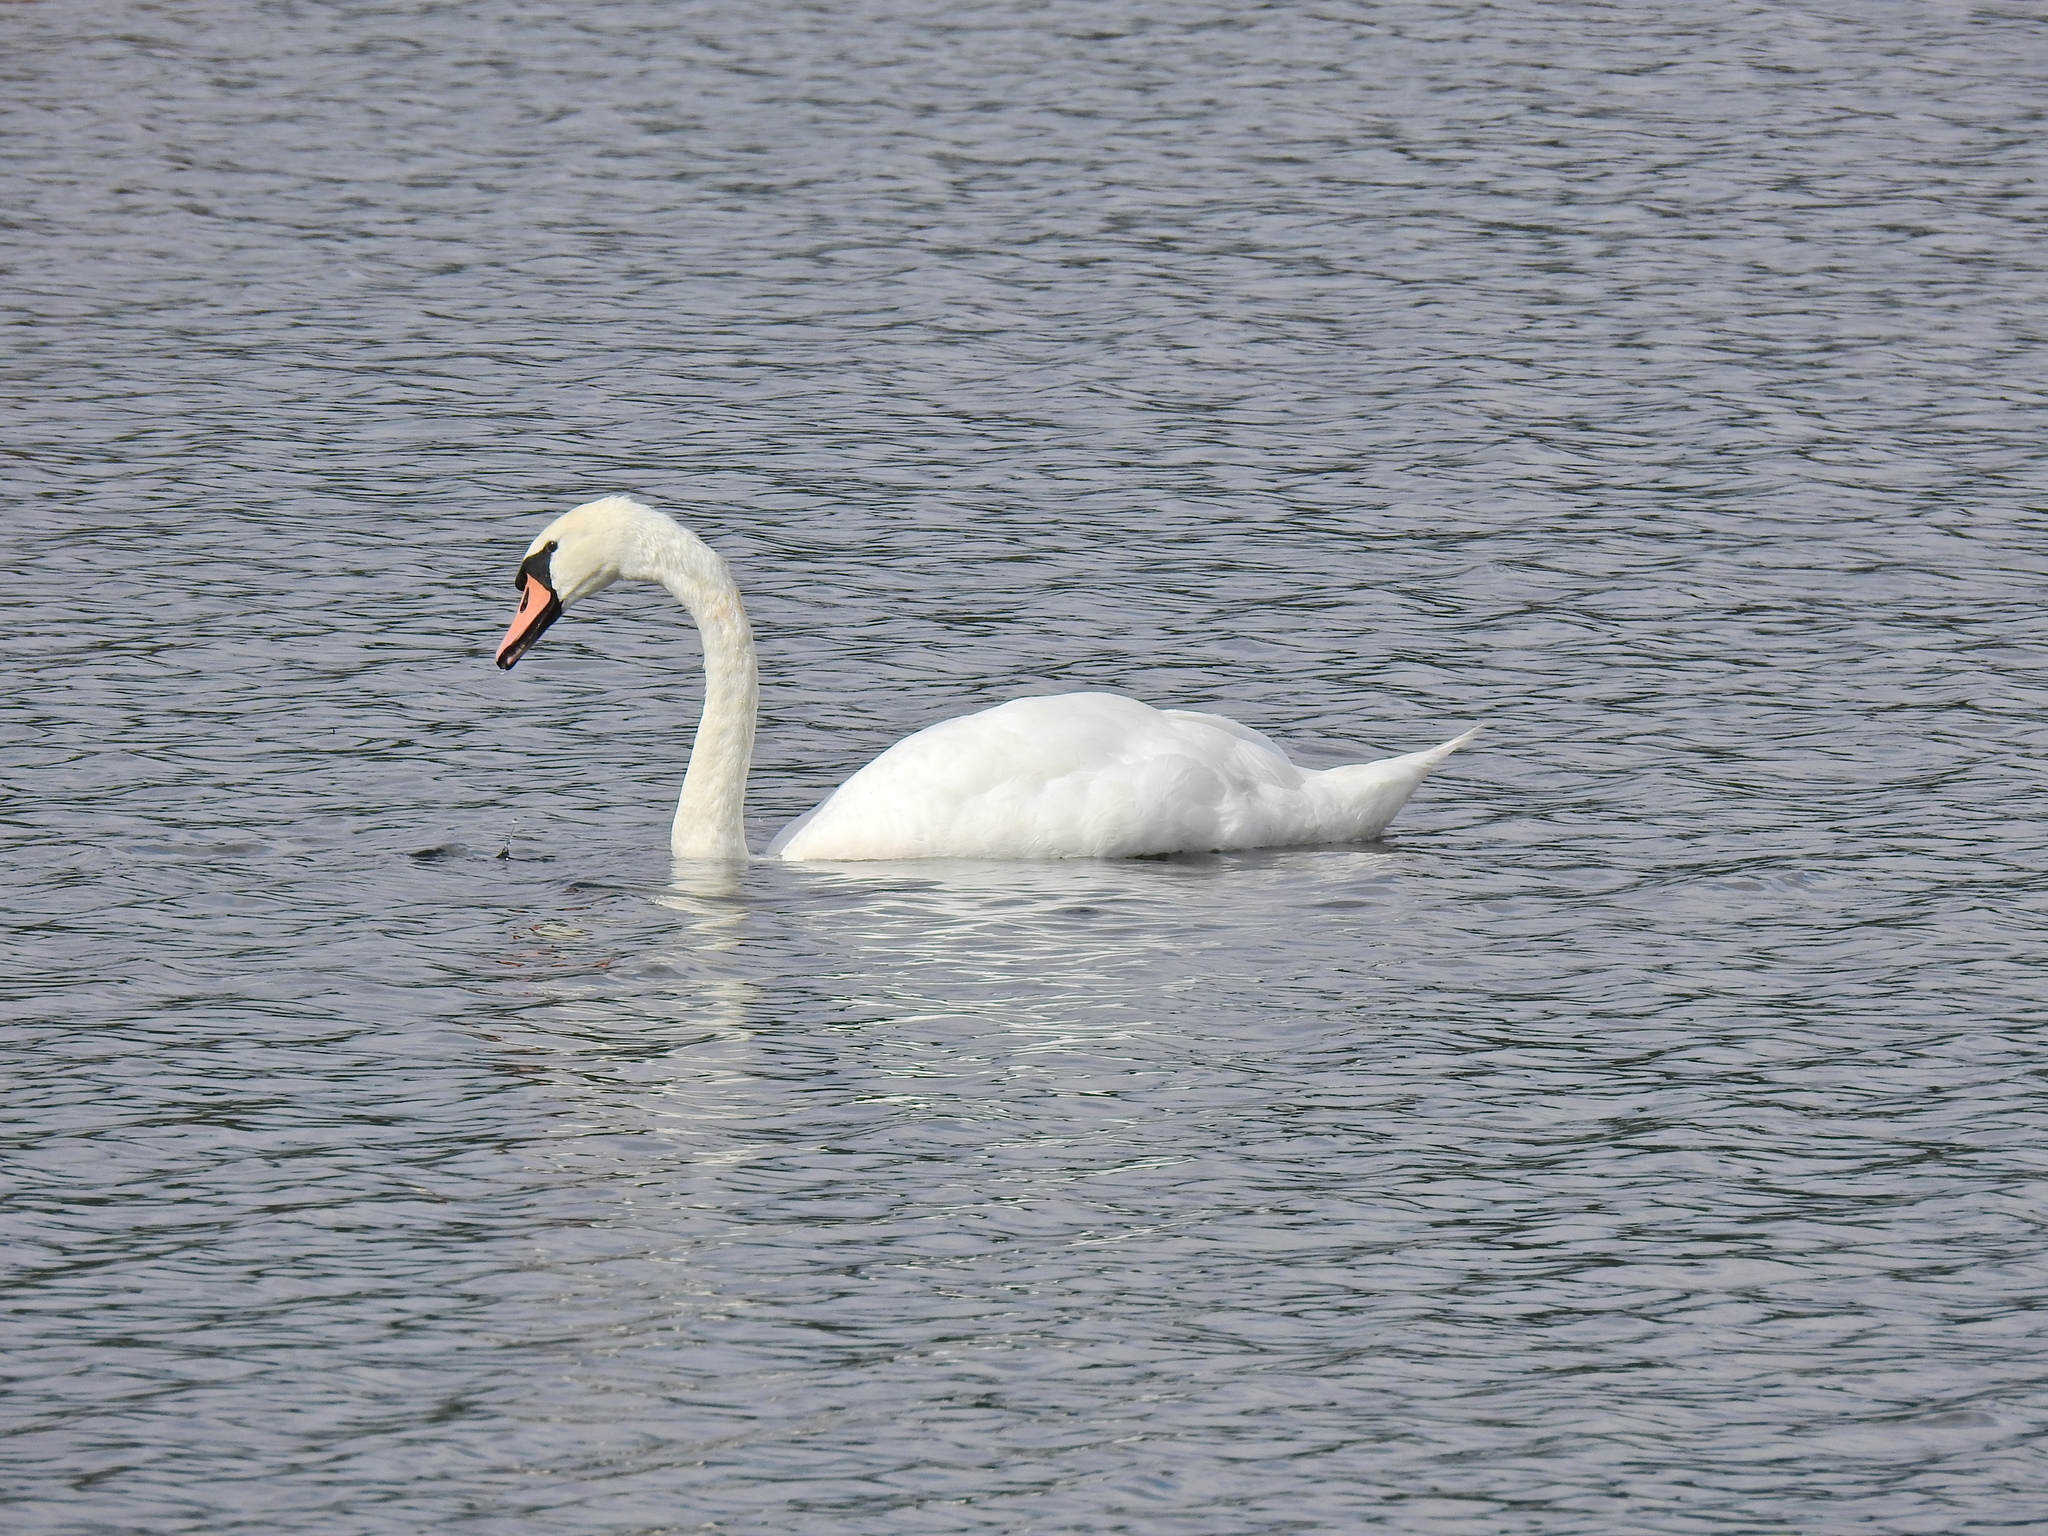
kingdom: Animalia
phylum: Chordata
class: Aves
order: Anseriformes
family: Anatidae
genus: Cygnus
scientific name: Cygnus olor
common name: Mute swan
